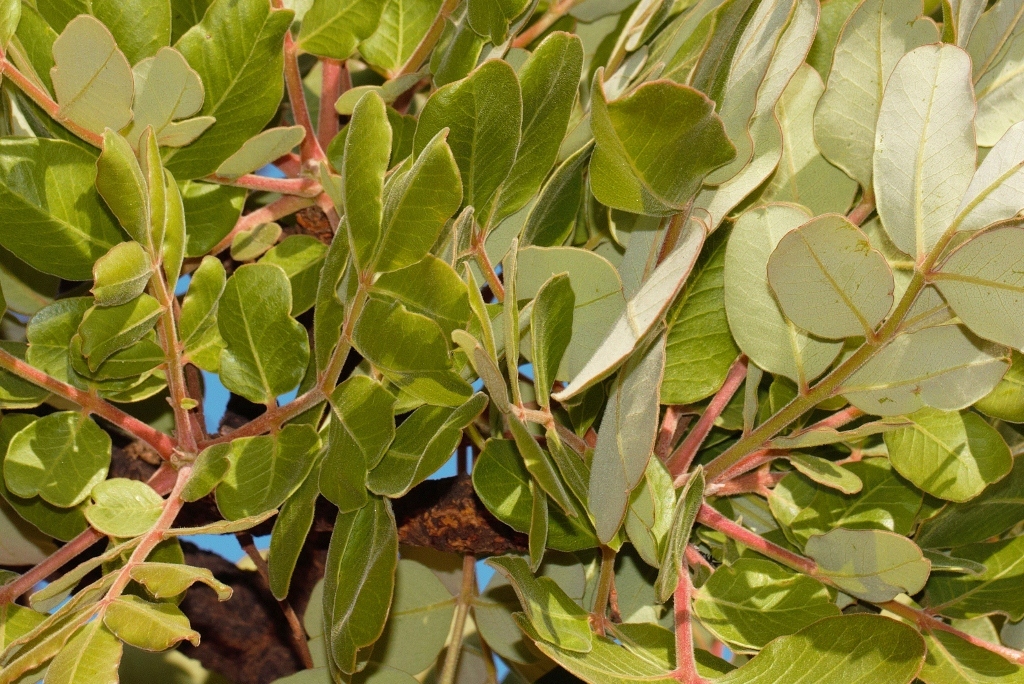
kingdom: Plantae
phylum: Tracheophyta
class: Magnoliopsida
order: Sapindales
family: Meliaceae
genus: Ekebergia
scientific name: Ekebergia benguelensis
